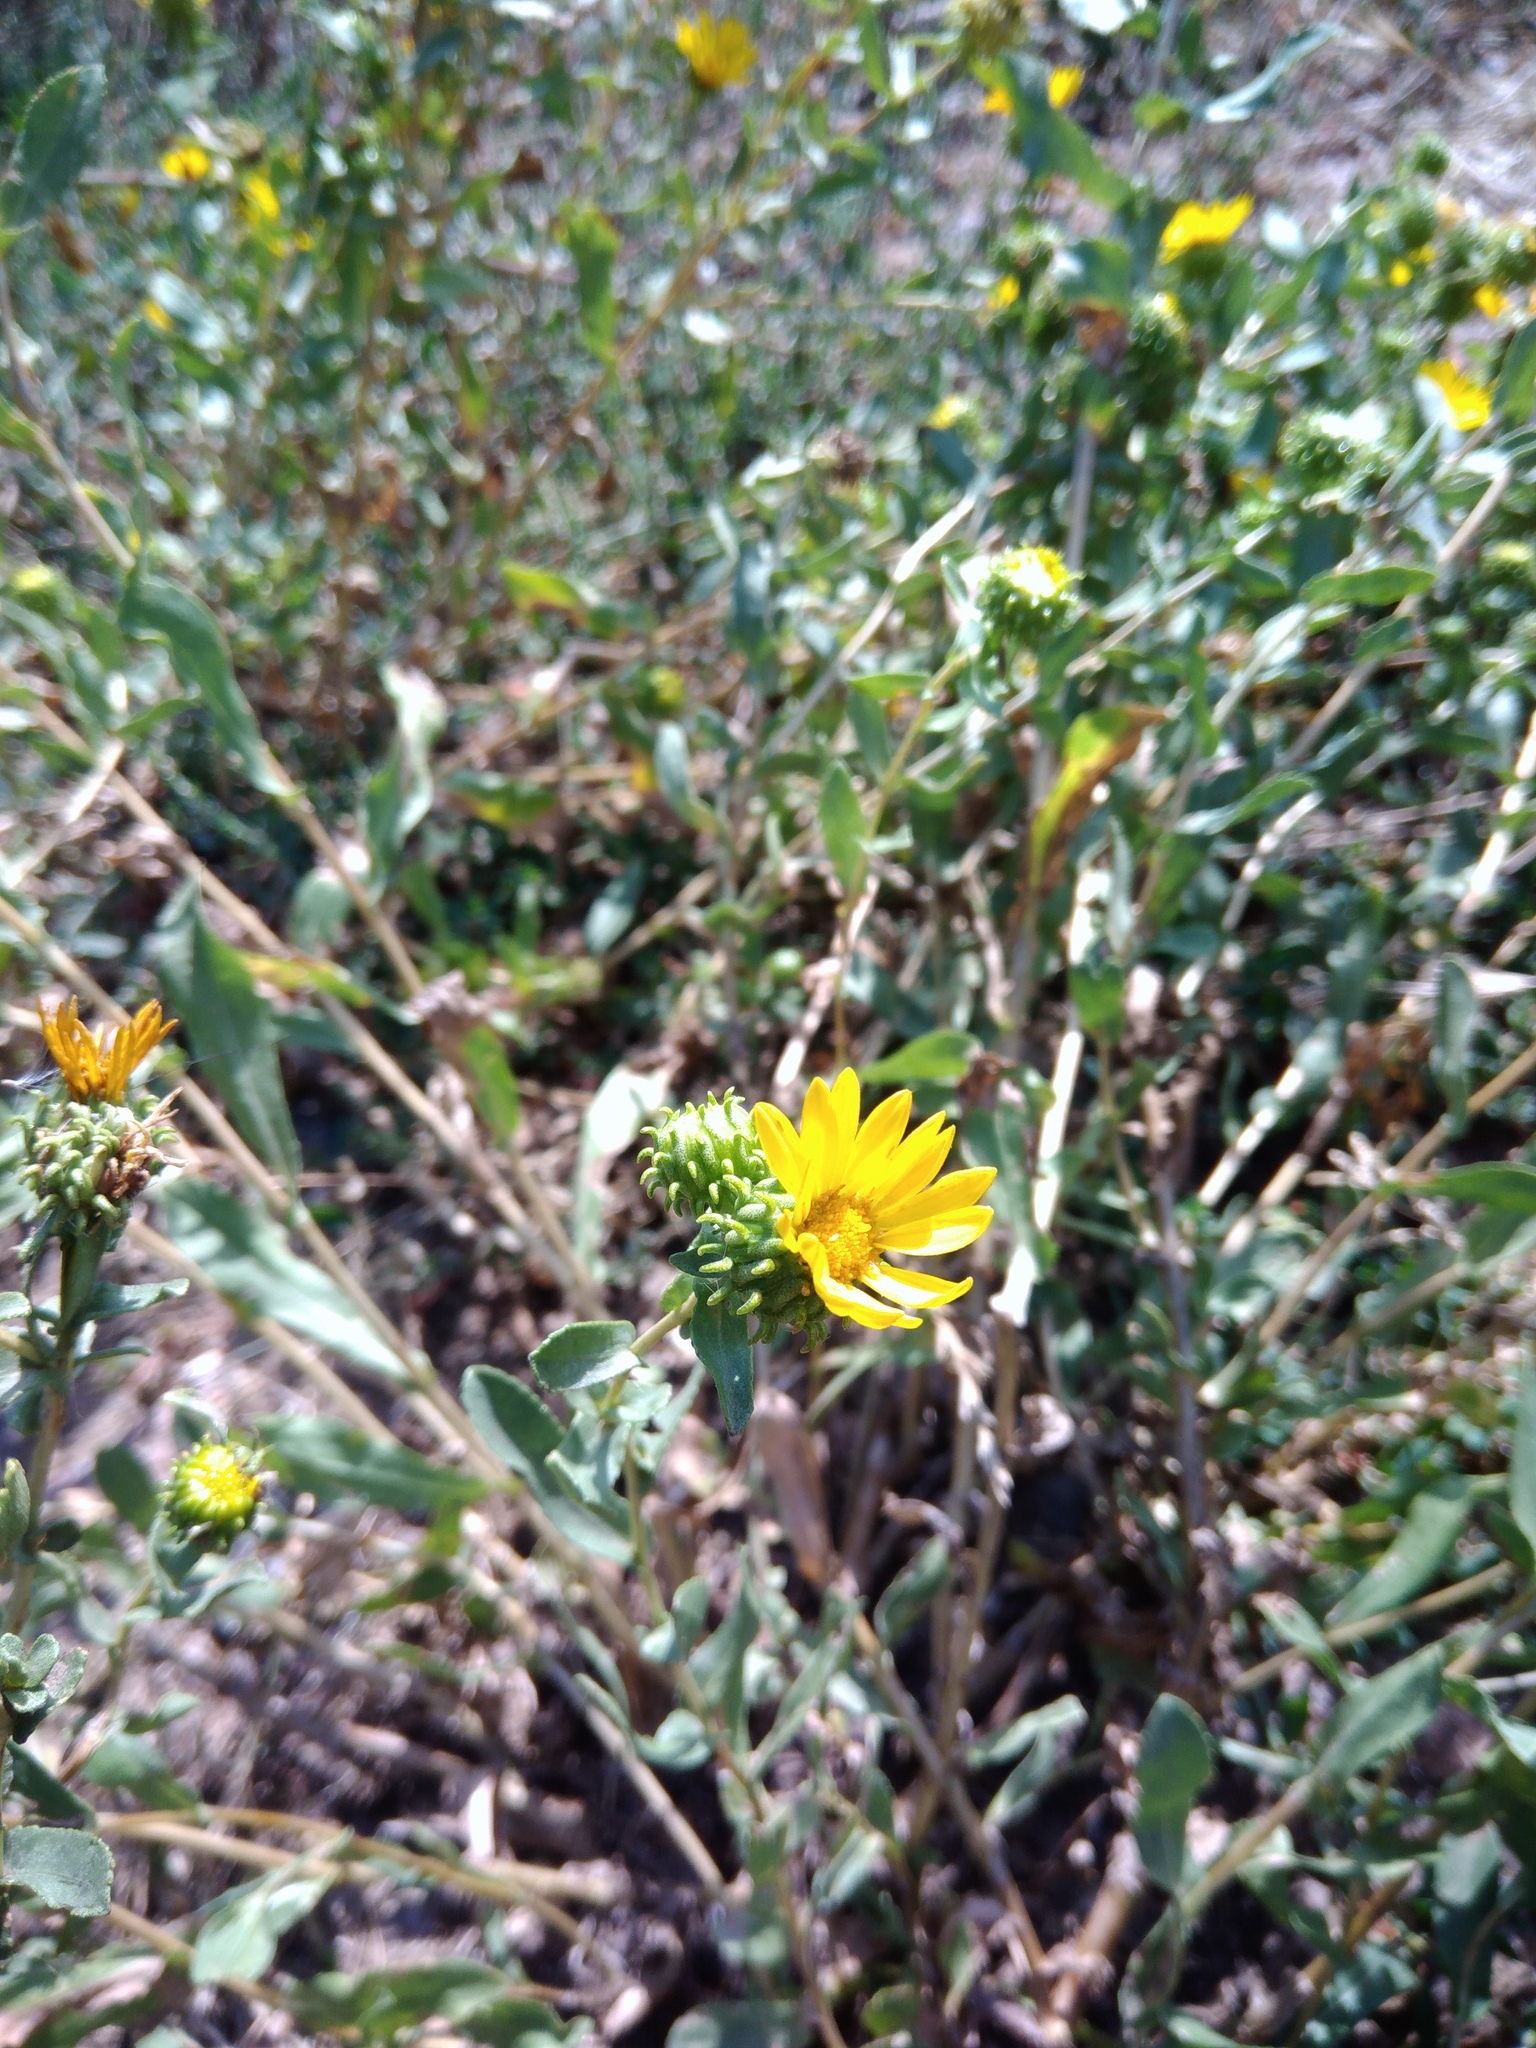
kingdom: Plantae
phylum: Tracheophyta
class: Magnoliopsida
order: Asterales
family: Asteraceae
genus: Grindelia
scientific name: Grindelia squarrosa
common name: Curly-cup gumweed
